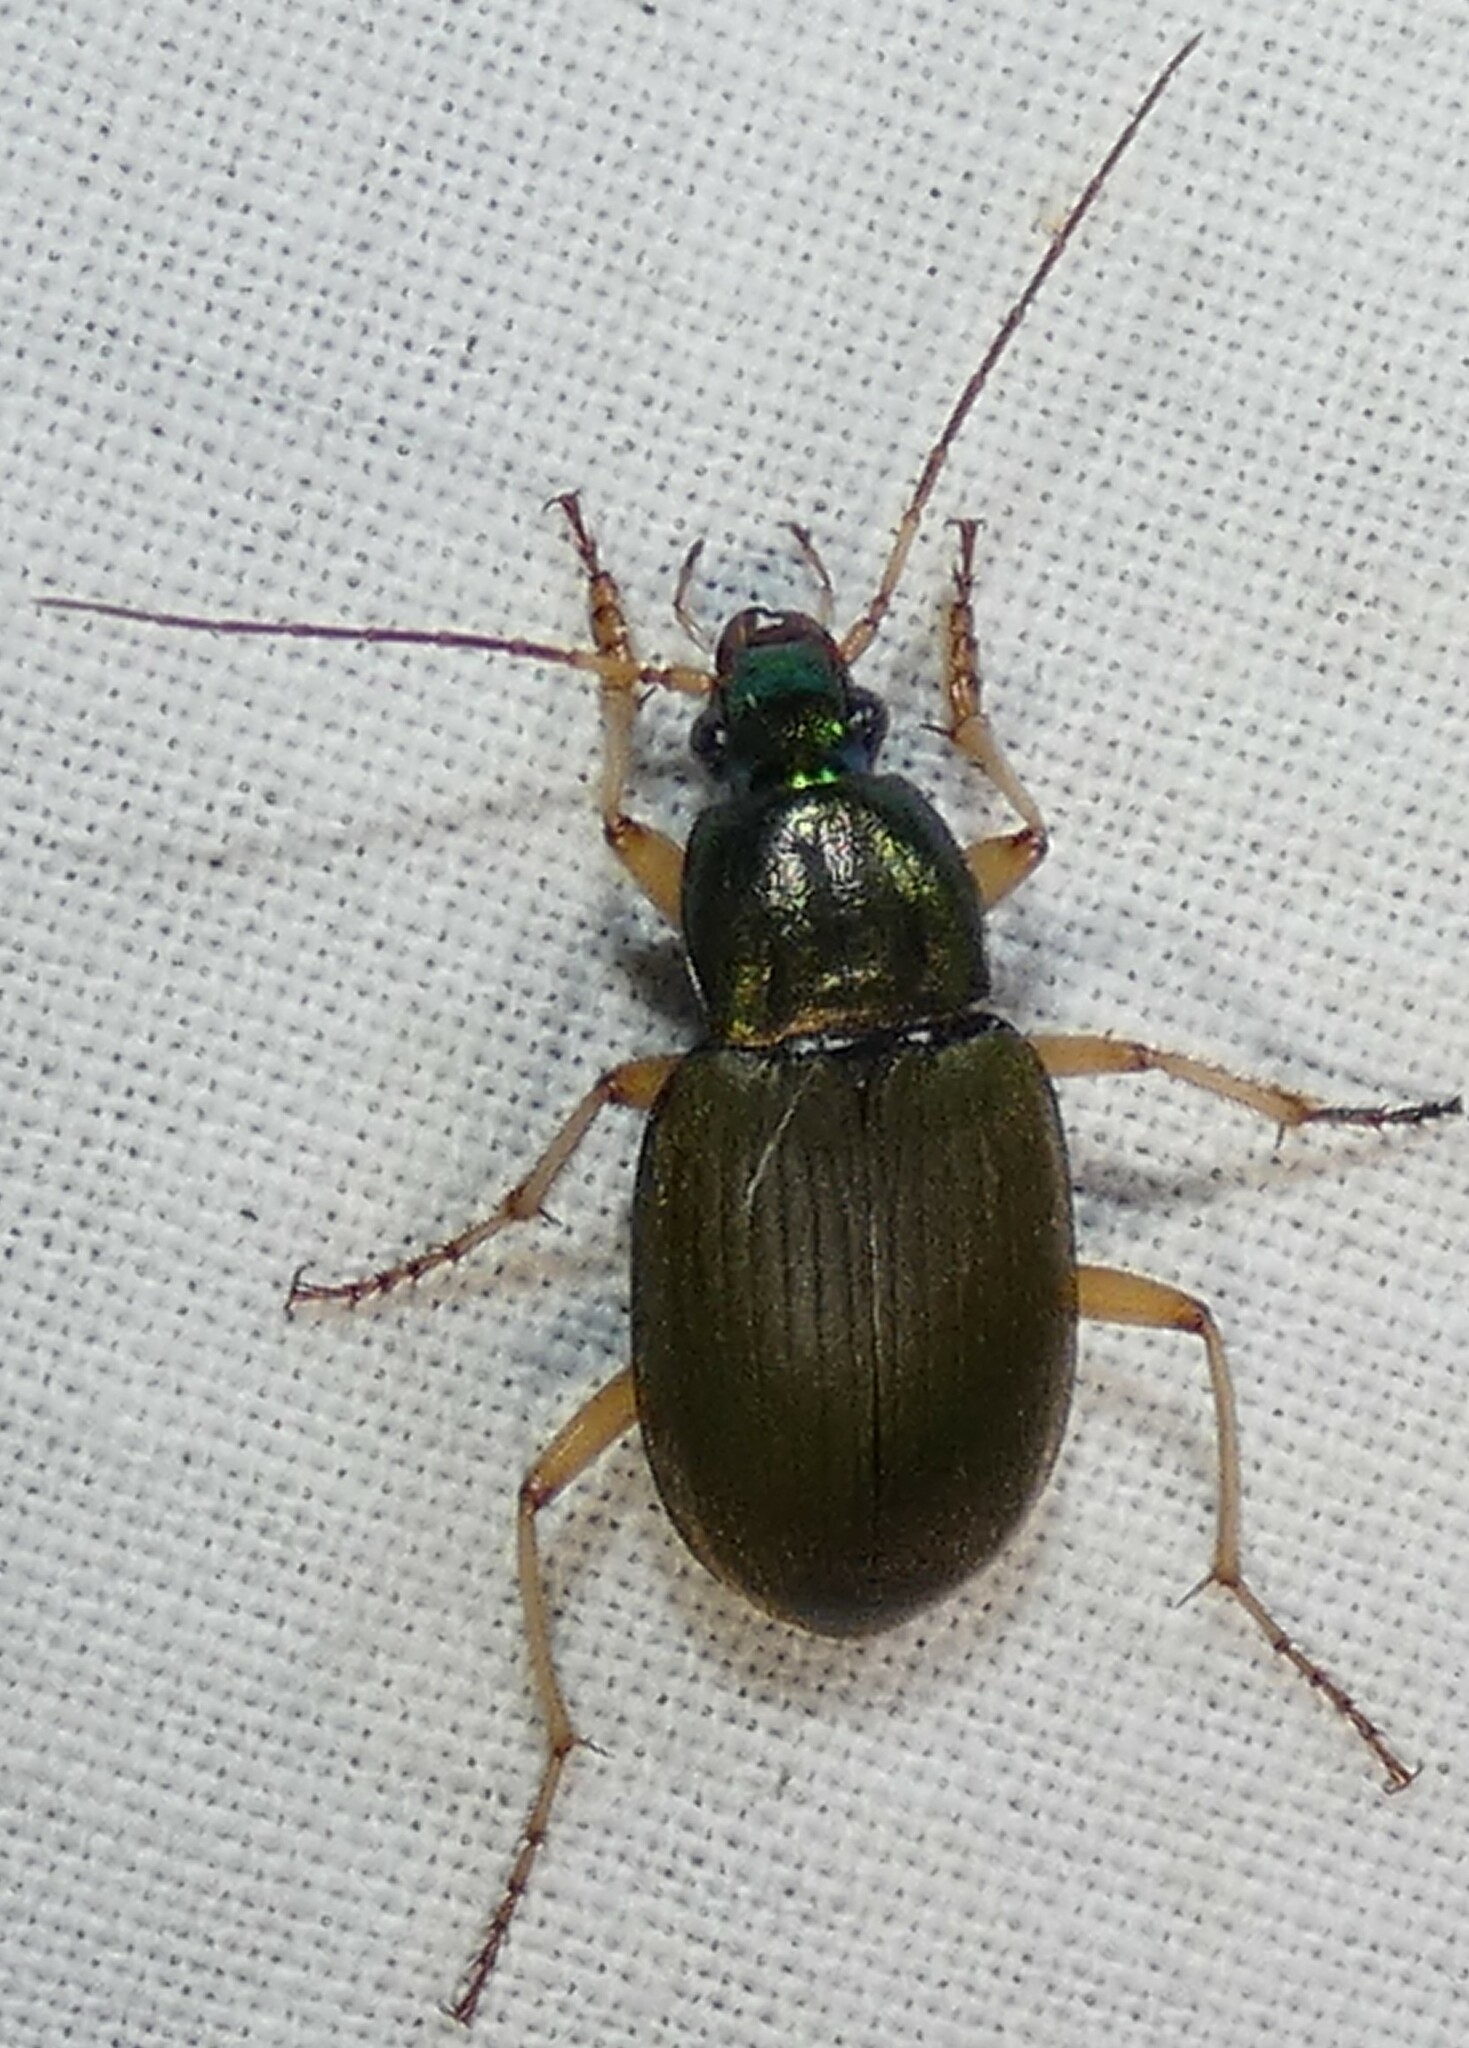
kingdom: Animalia
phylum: Arthropoda
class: Insecta
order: Coleoptera
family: Carabidae
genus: Chlaenius
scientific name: Chlaenius sericeus
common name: Green pubescent ground beetle
